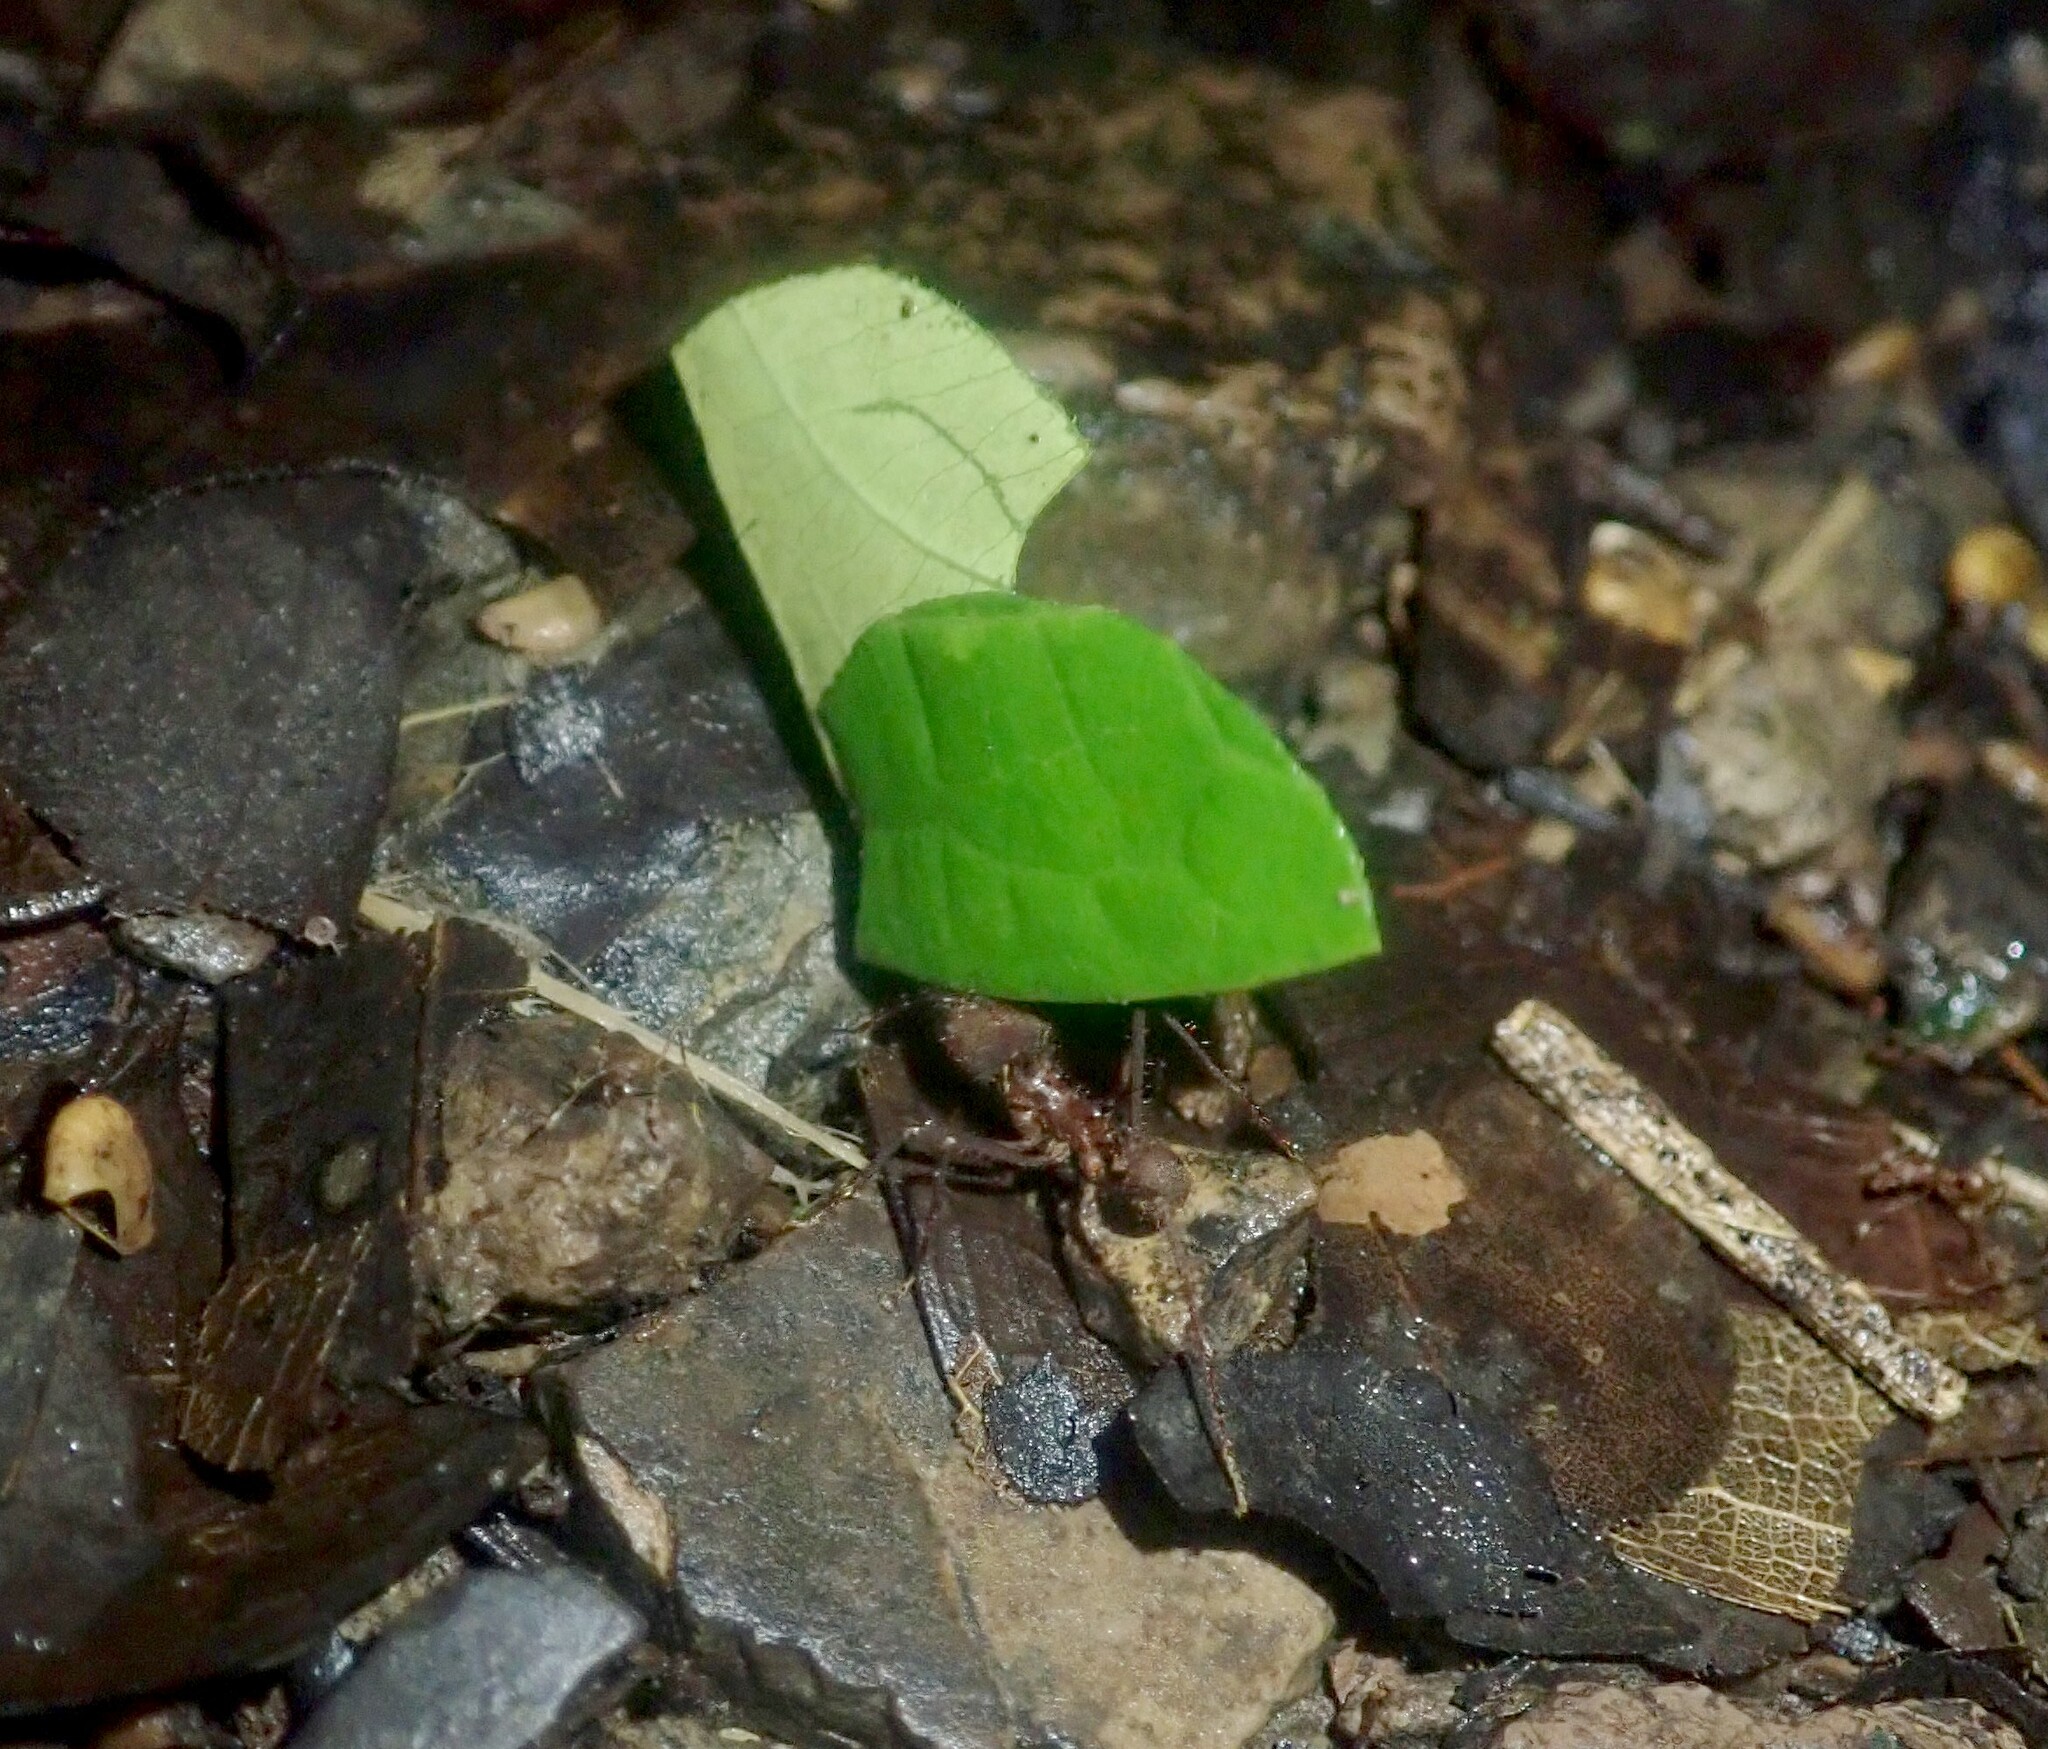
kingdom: Animalia
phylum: Arthropoda
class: Insecta
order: Hymenoptera
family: Formicidae
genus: Atta
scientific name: Atta cephalotes
